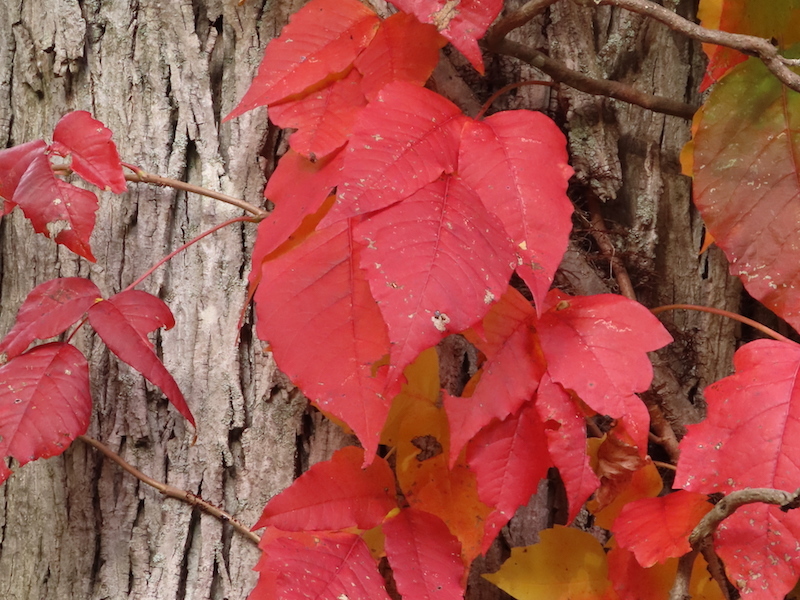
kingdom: Plantae
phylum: Tracheophyta
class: Magnoliopsida
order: Sapindales
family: Anacardiaceae
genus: Toxicodendron
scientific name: Toxicodendron radicans
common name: Poison ivy
